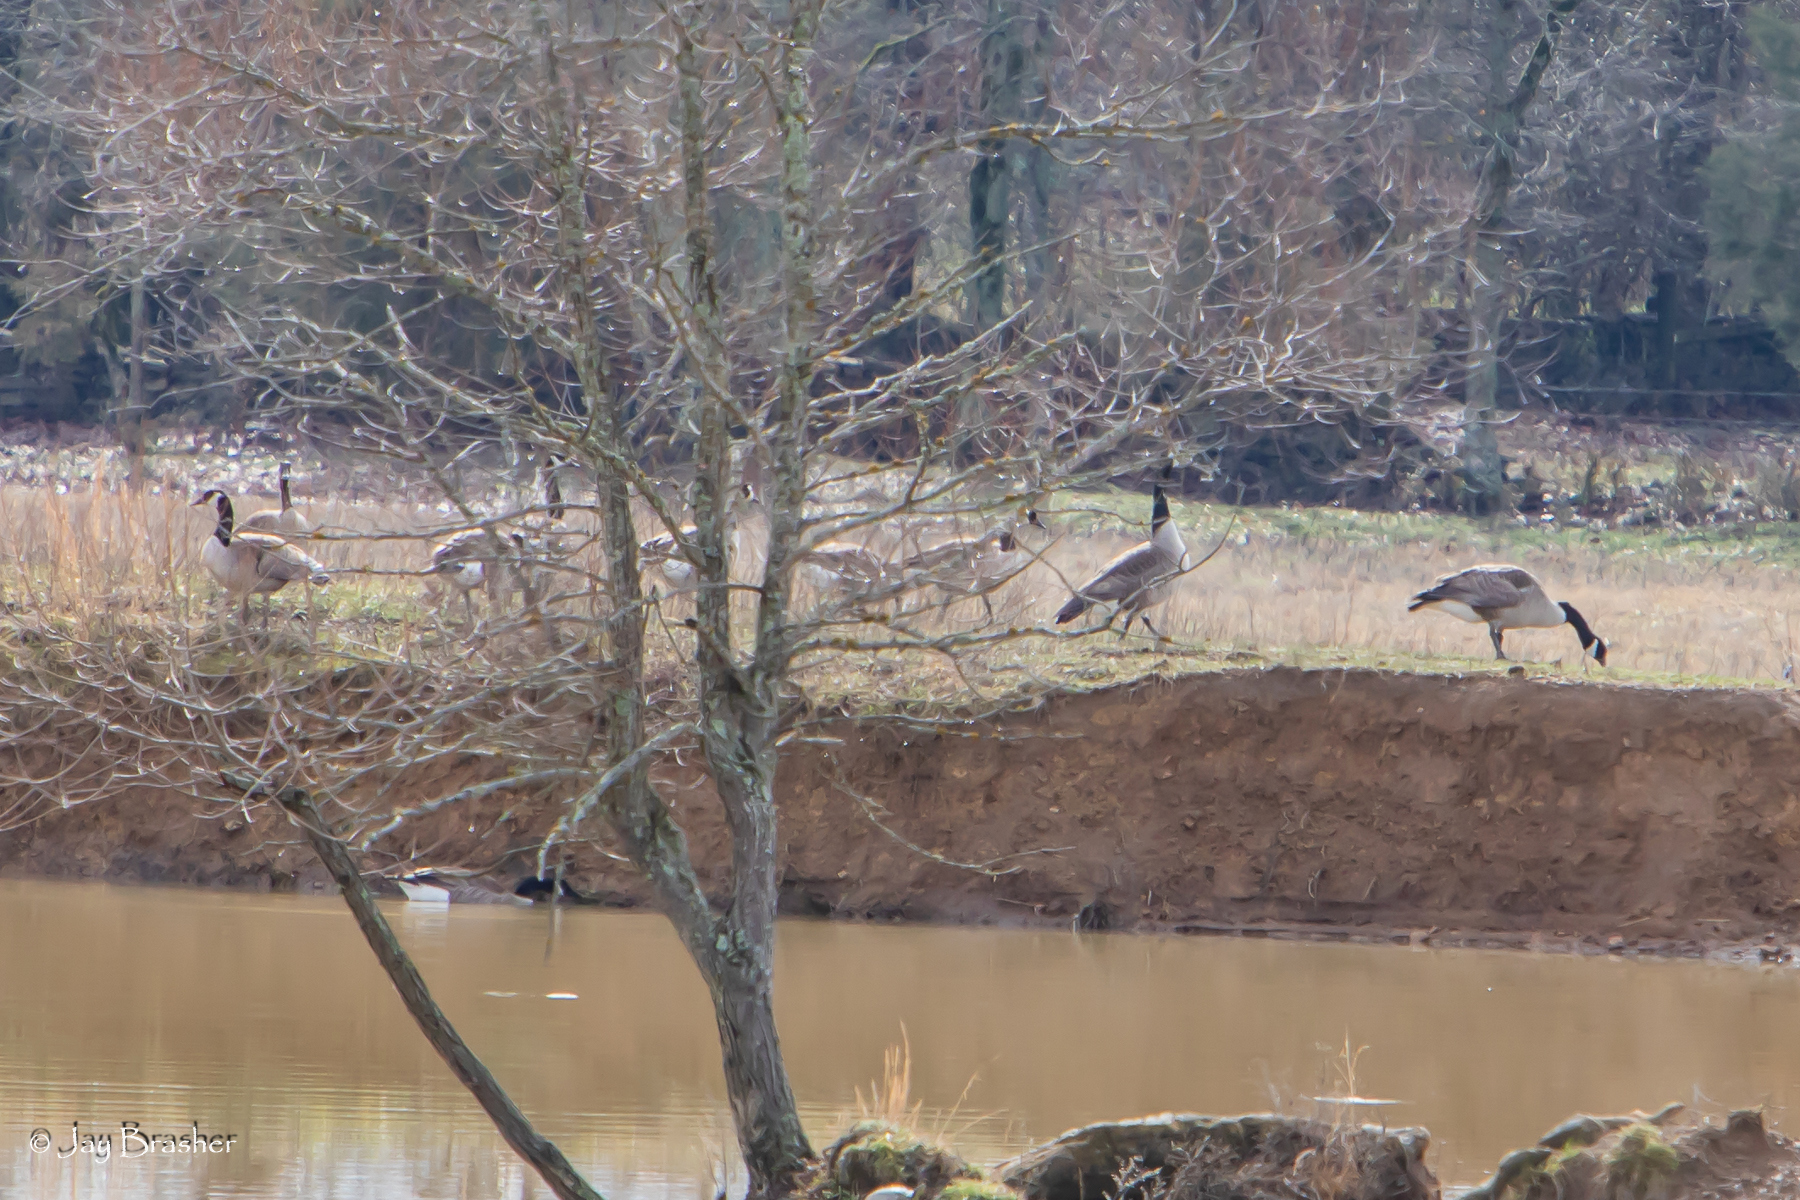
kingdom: Animalia
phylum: Chordata
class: Aves
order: Anseriformes
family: Anatidae
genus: Branta
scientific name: Branta canadensis
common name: Canada goose
